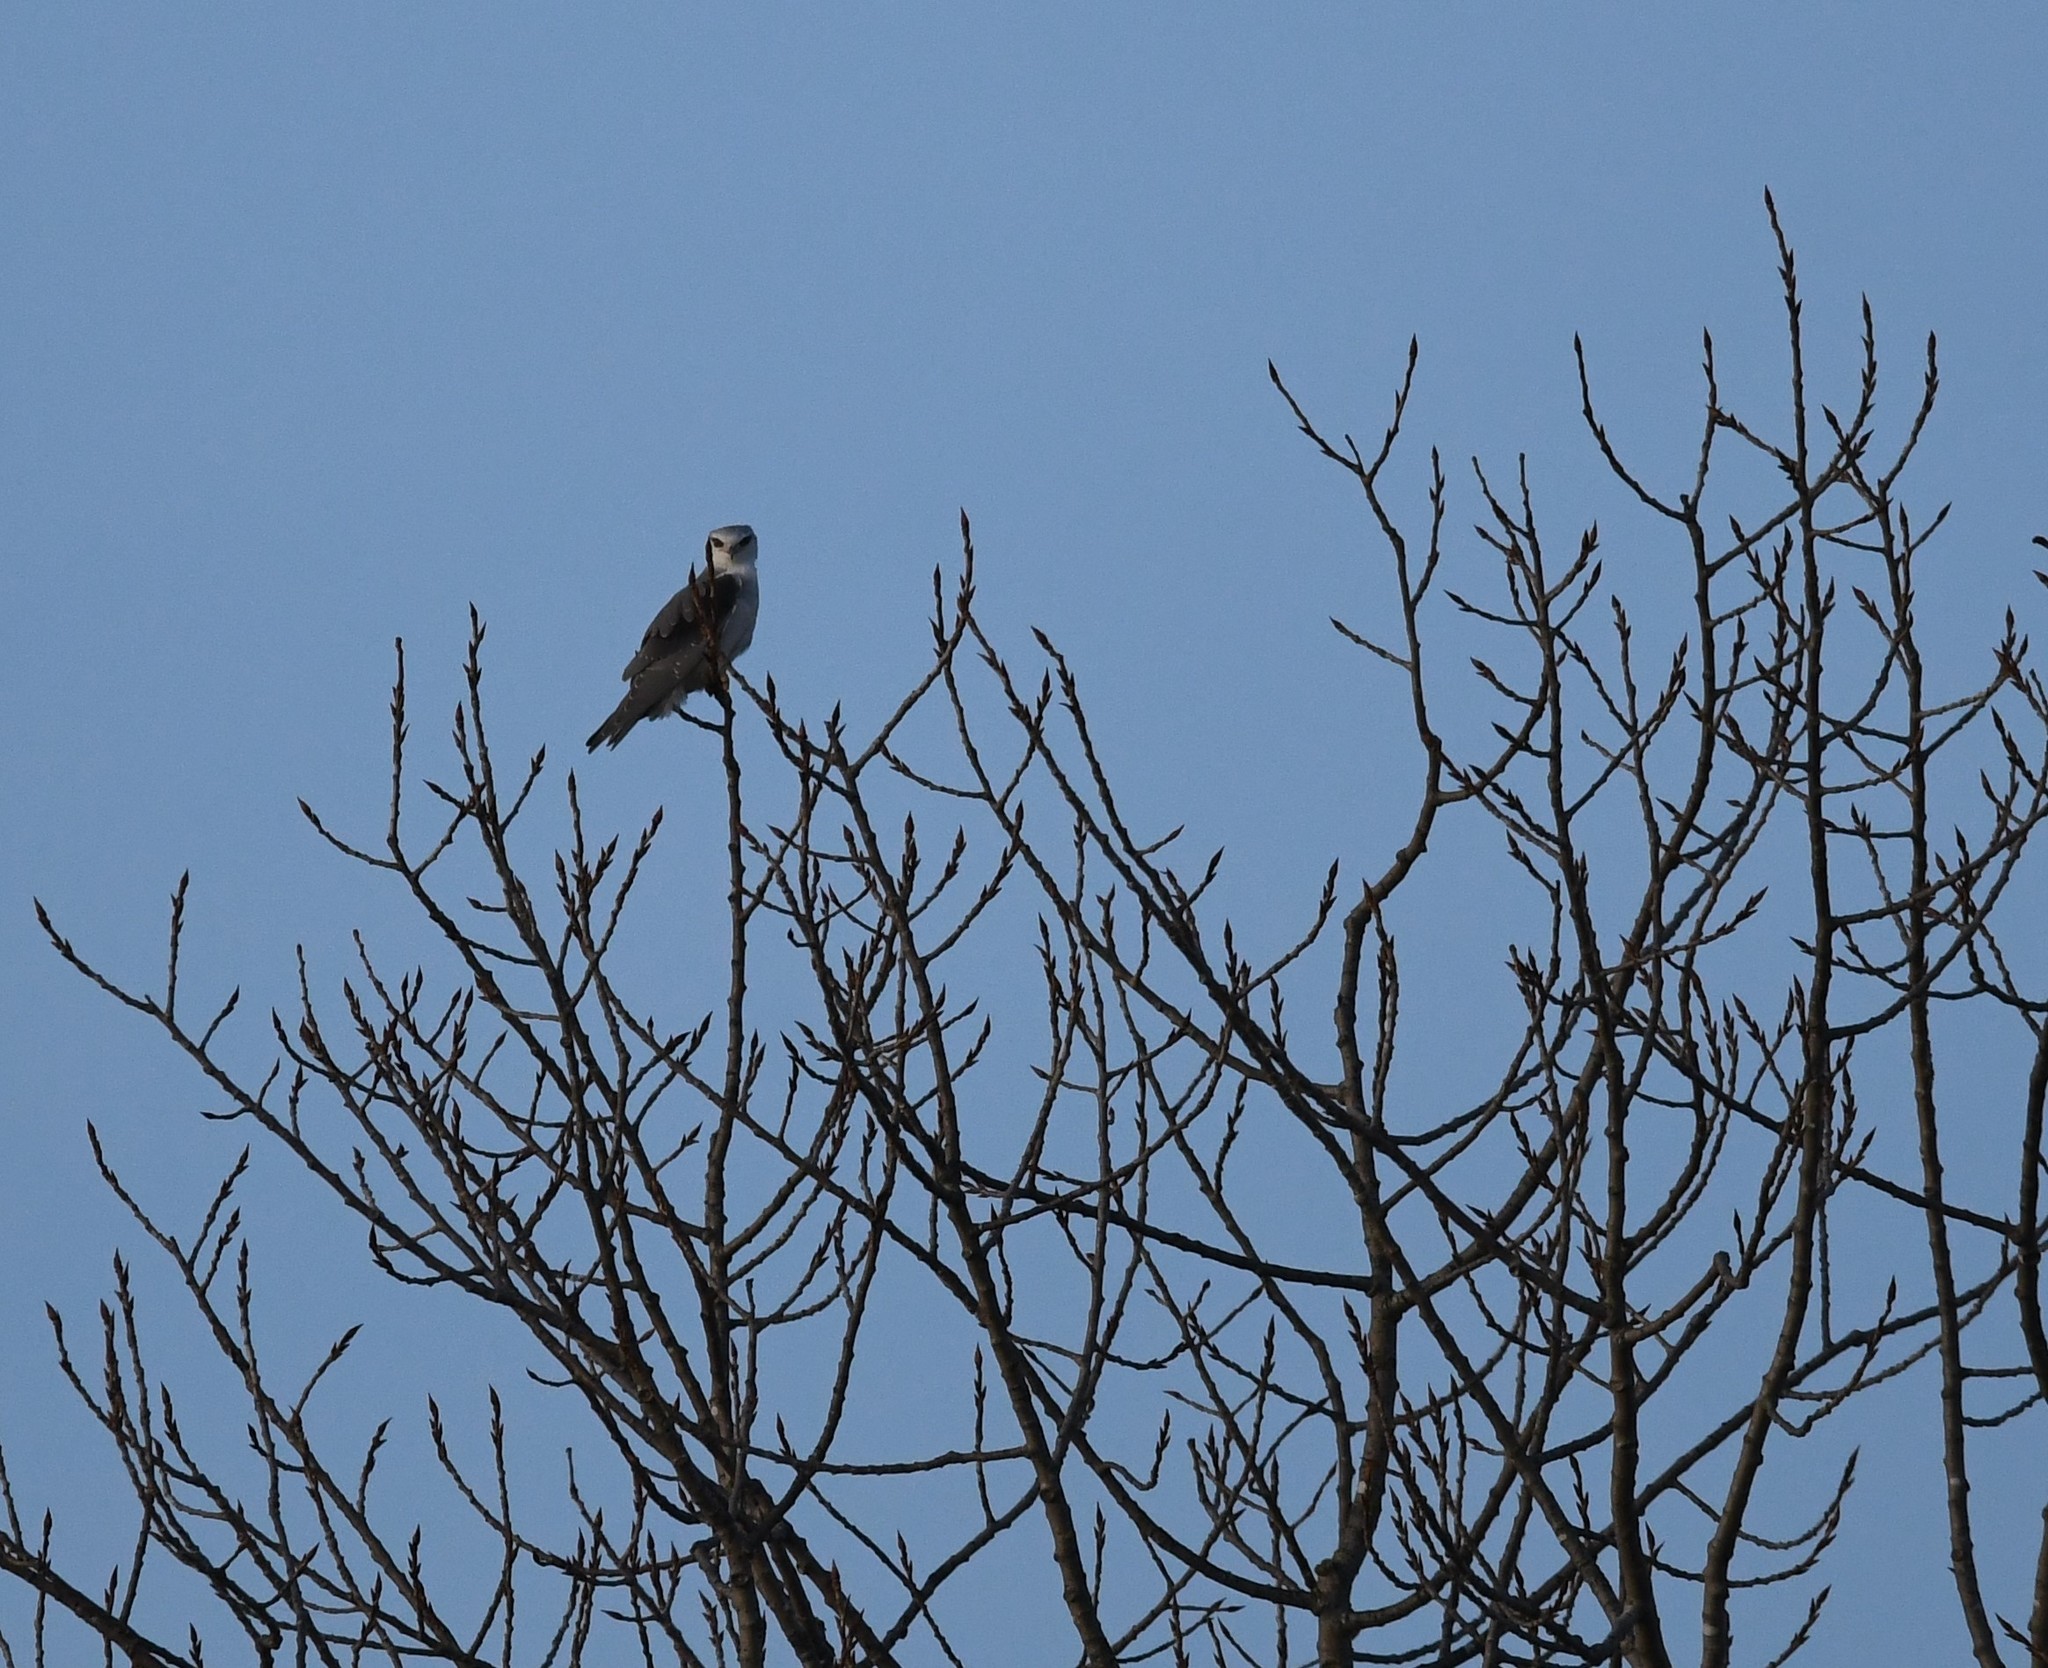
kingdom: Animalia
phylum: Chordata
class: Aves
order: Accipitriformes
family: Accipitridae
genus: Elanus
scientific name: Elanus caeruleus
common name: Black-winged kite
